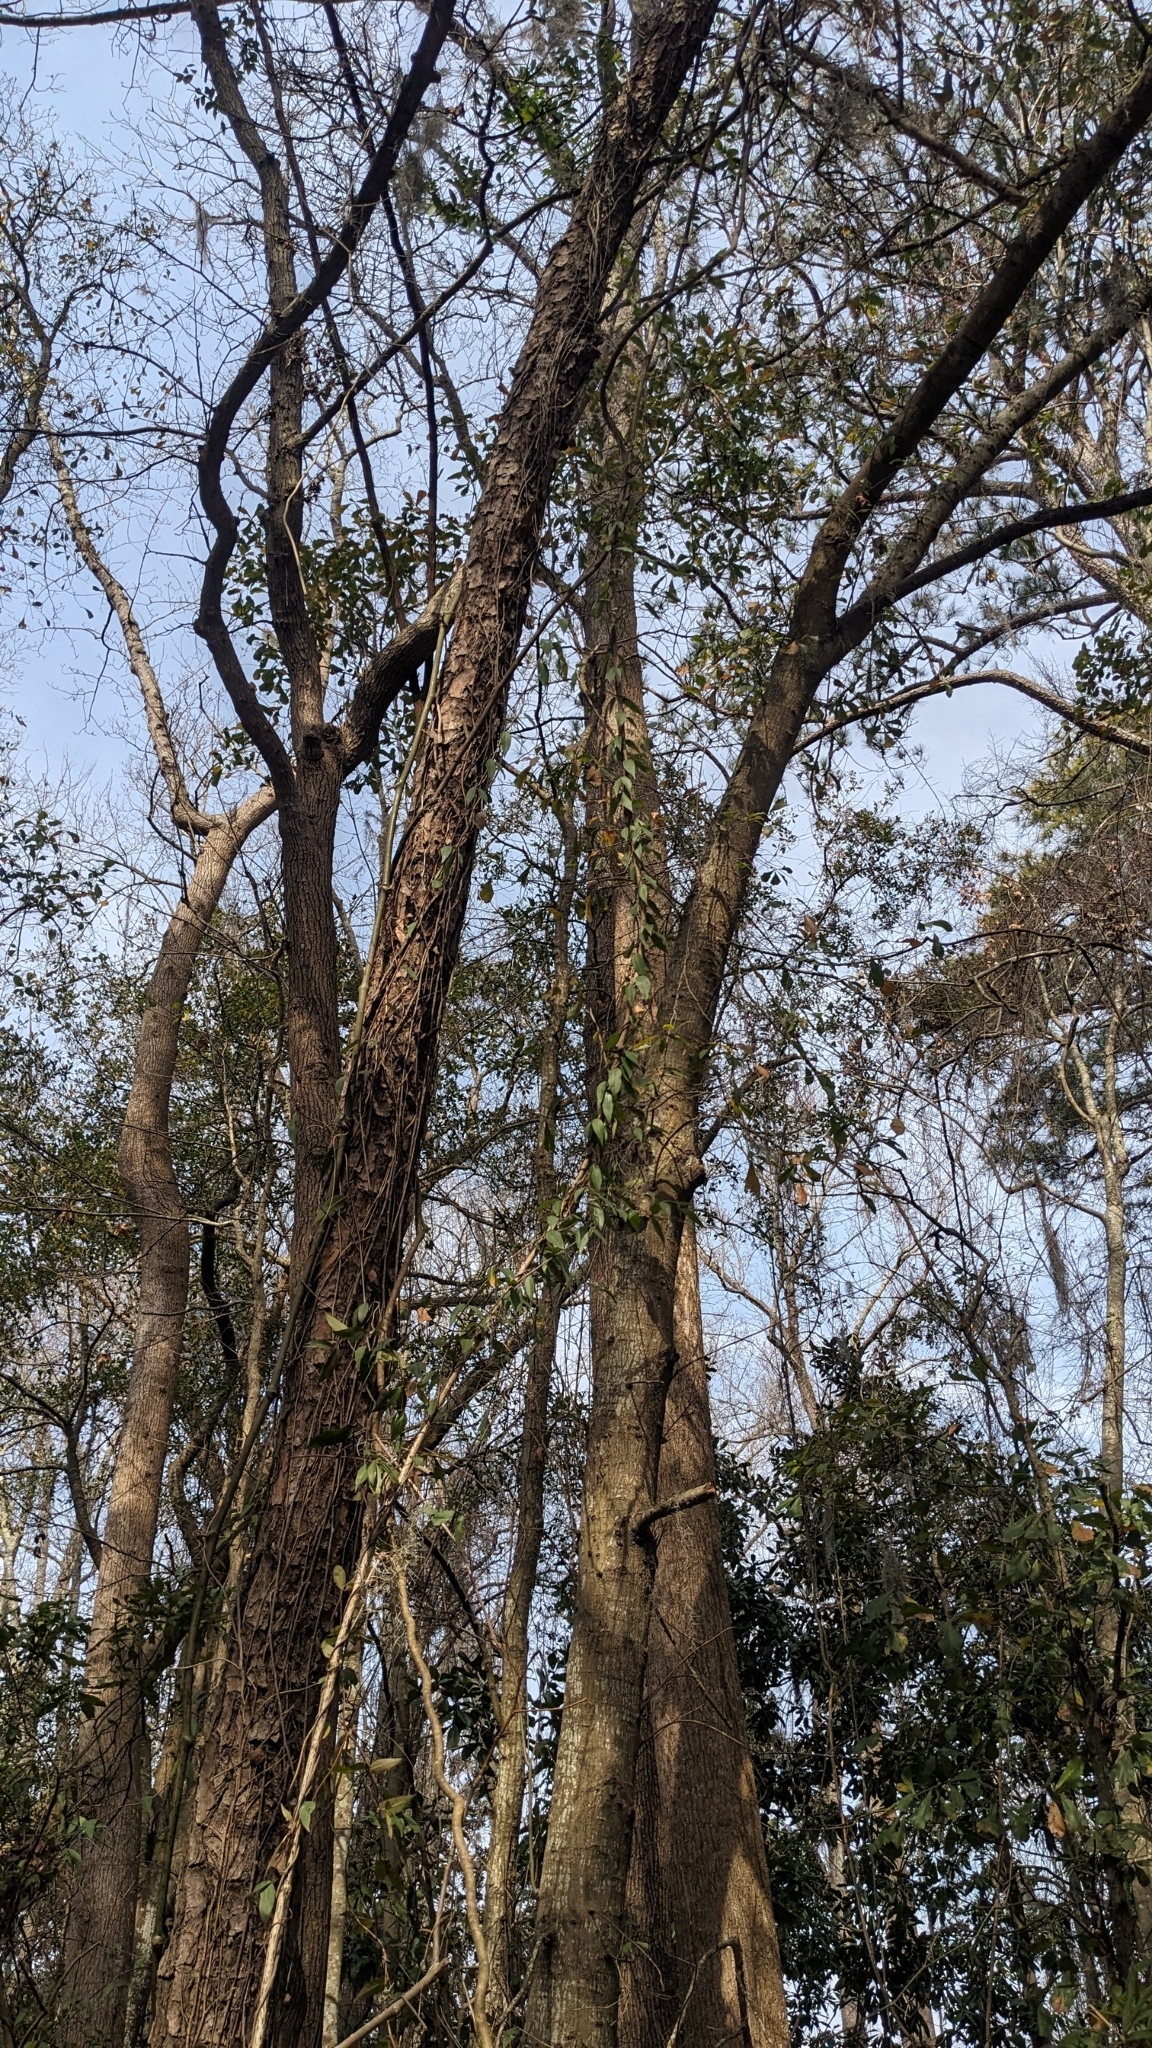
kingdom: Plantae
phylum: Tracheophyta
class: Magnoliopsida
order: Gentianales
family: Gelsemiaceae
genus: Gelsemium
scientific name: Gelsemium sempervirens
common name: Carolina-jasmine
